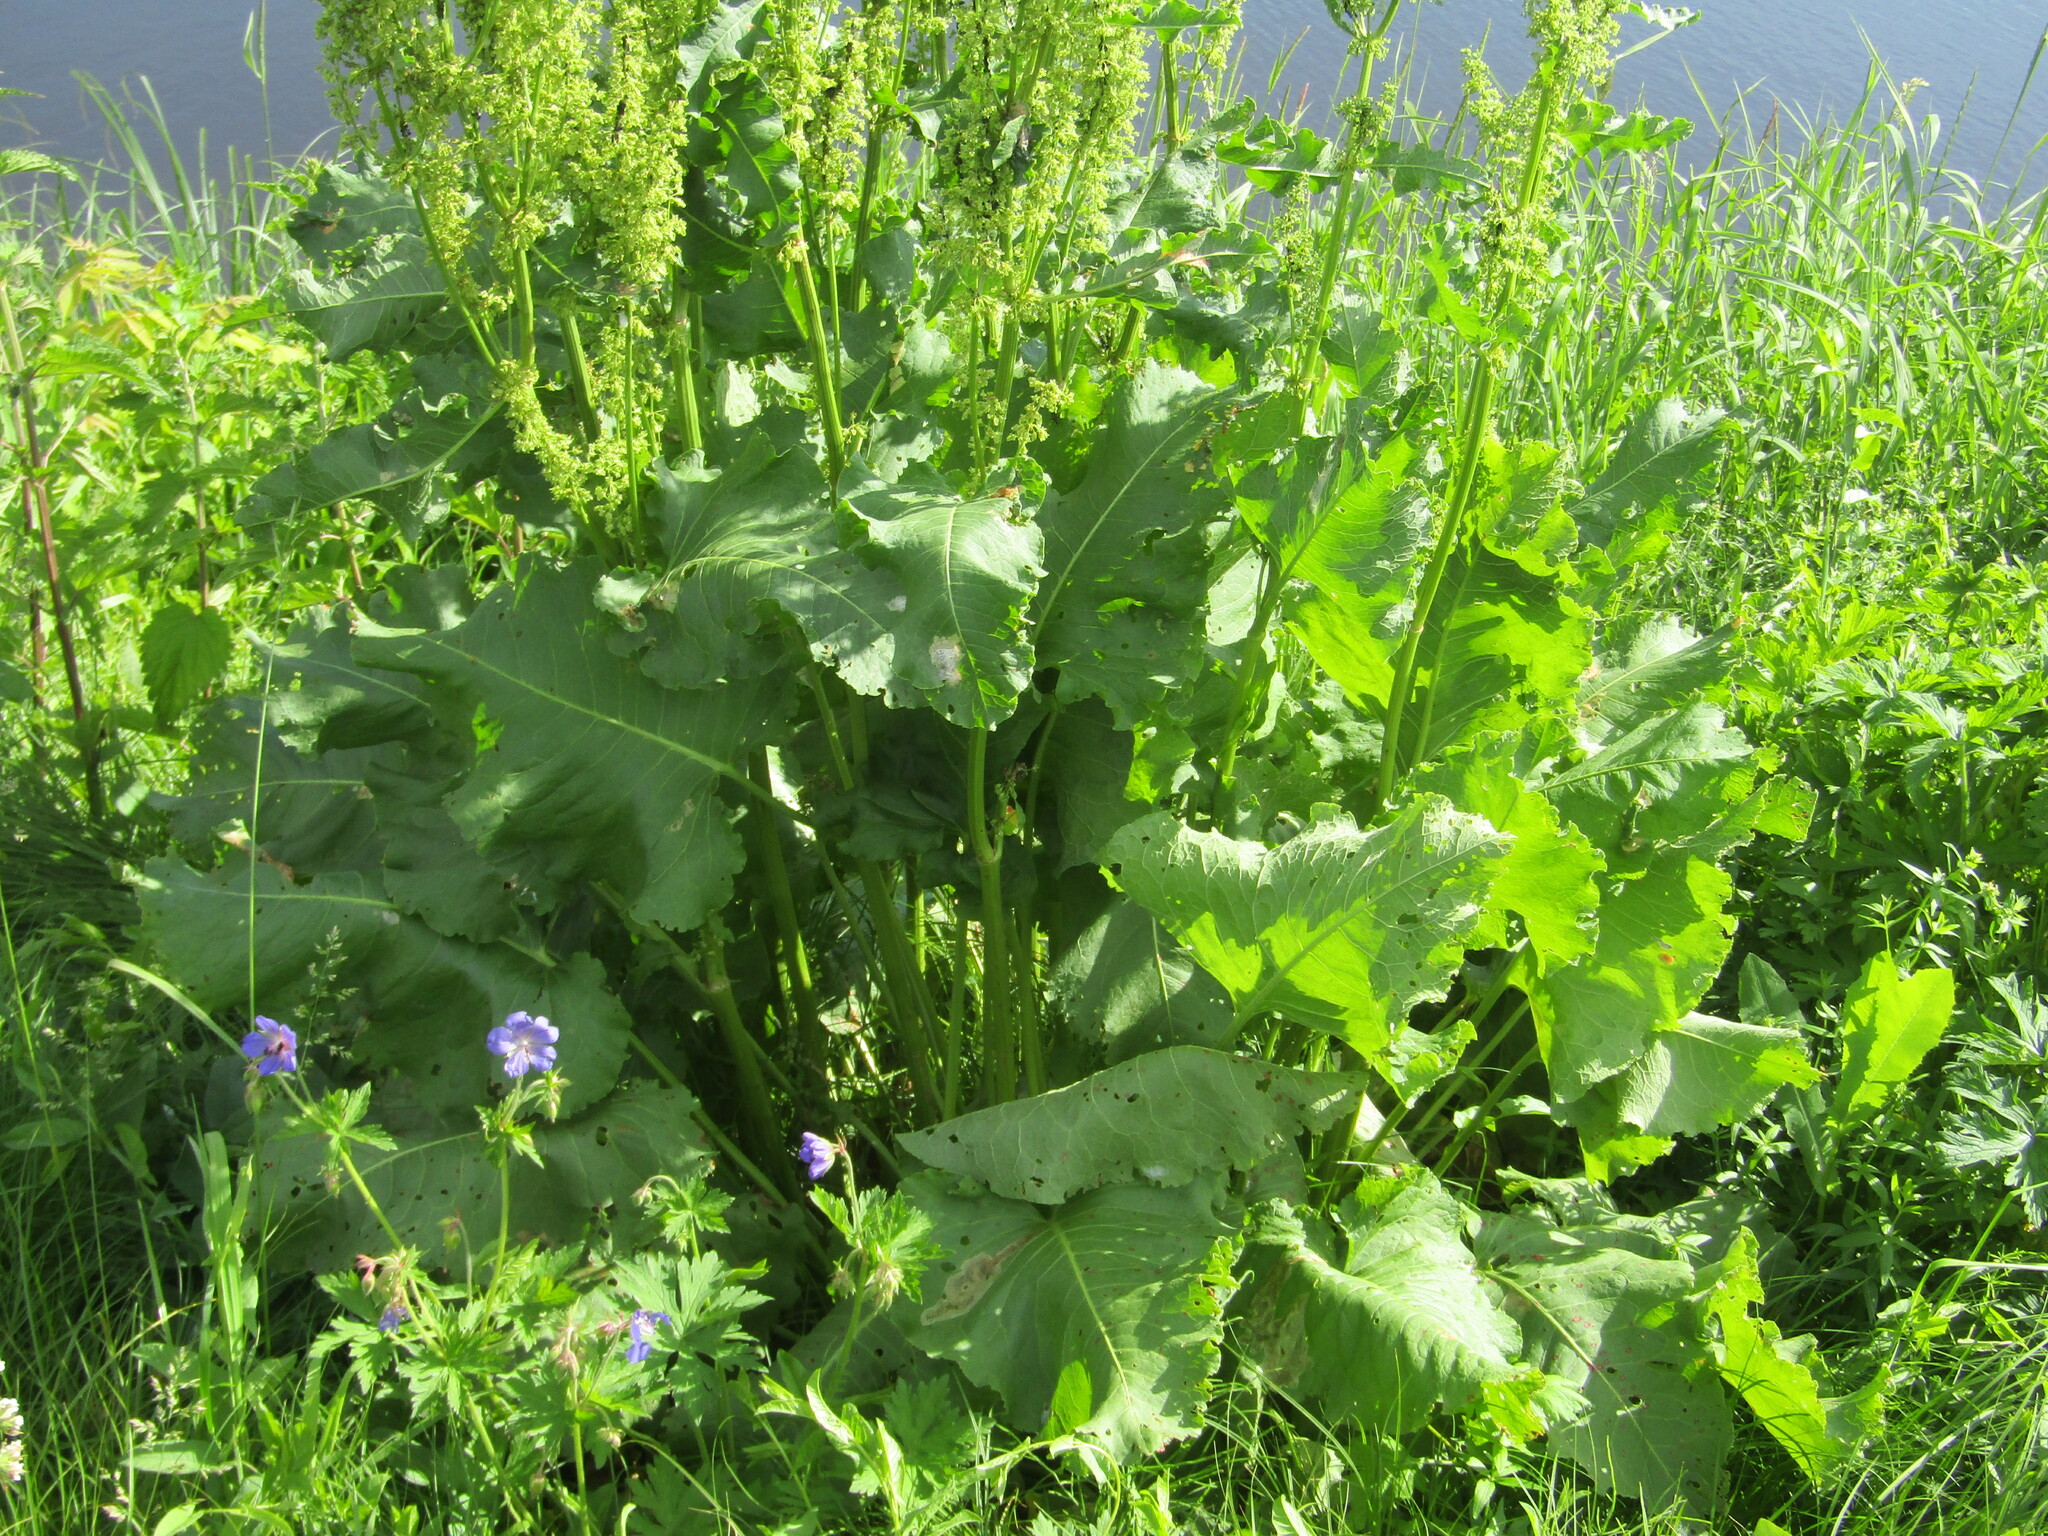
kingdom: Plantae
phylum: Tracheophyta
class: Magnoliopsida
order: Caryophyllales
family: Polygonaceae
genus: Rumex
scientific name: Rumex confertus
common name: Russian dock
